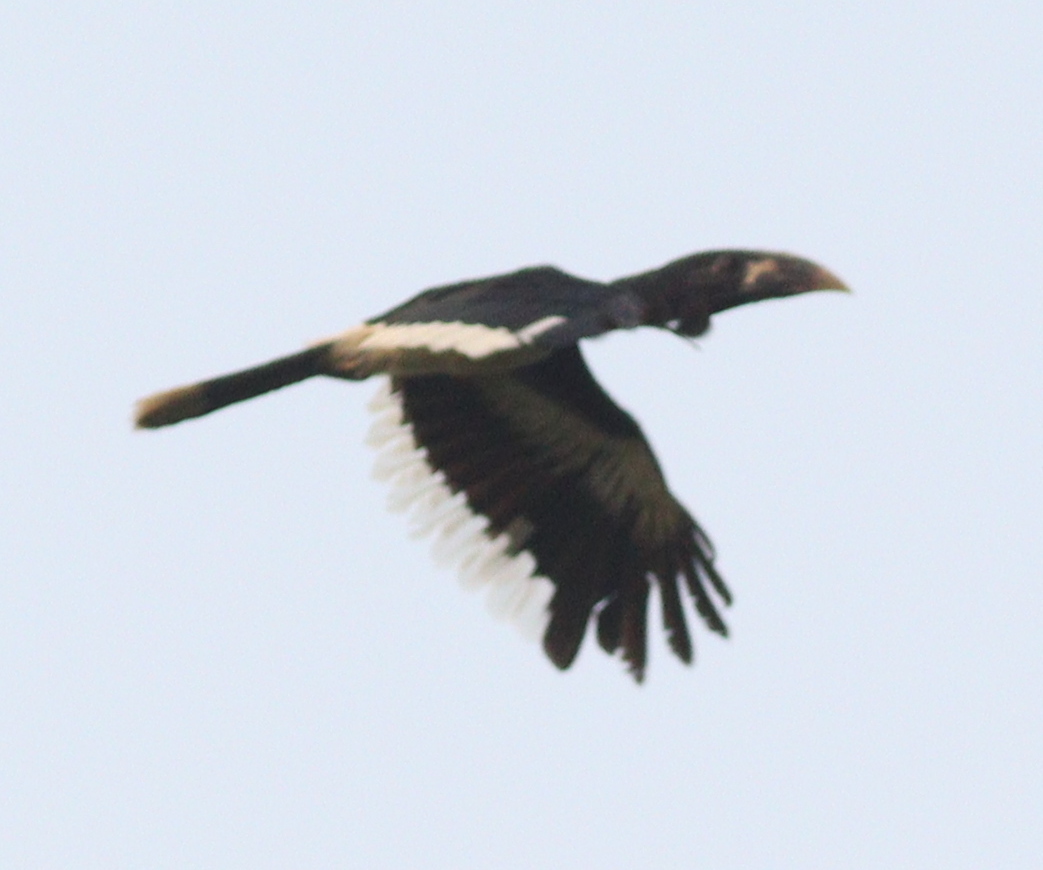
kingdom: Animalia
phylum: Chordata
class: Aves
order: Bucerotiformes
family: Bucerotidae
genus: Bycanistes
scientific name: Bycanistes fistulator
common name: Piping hornbill
